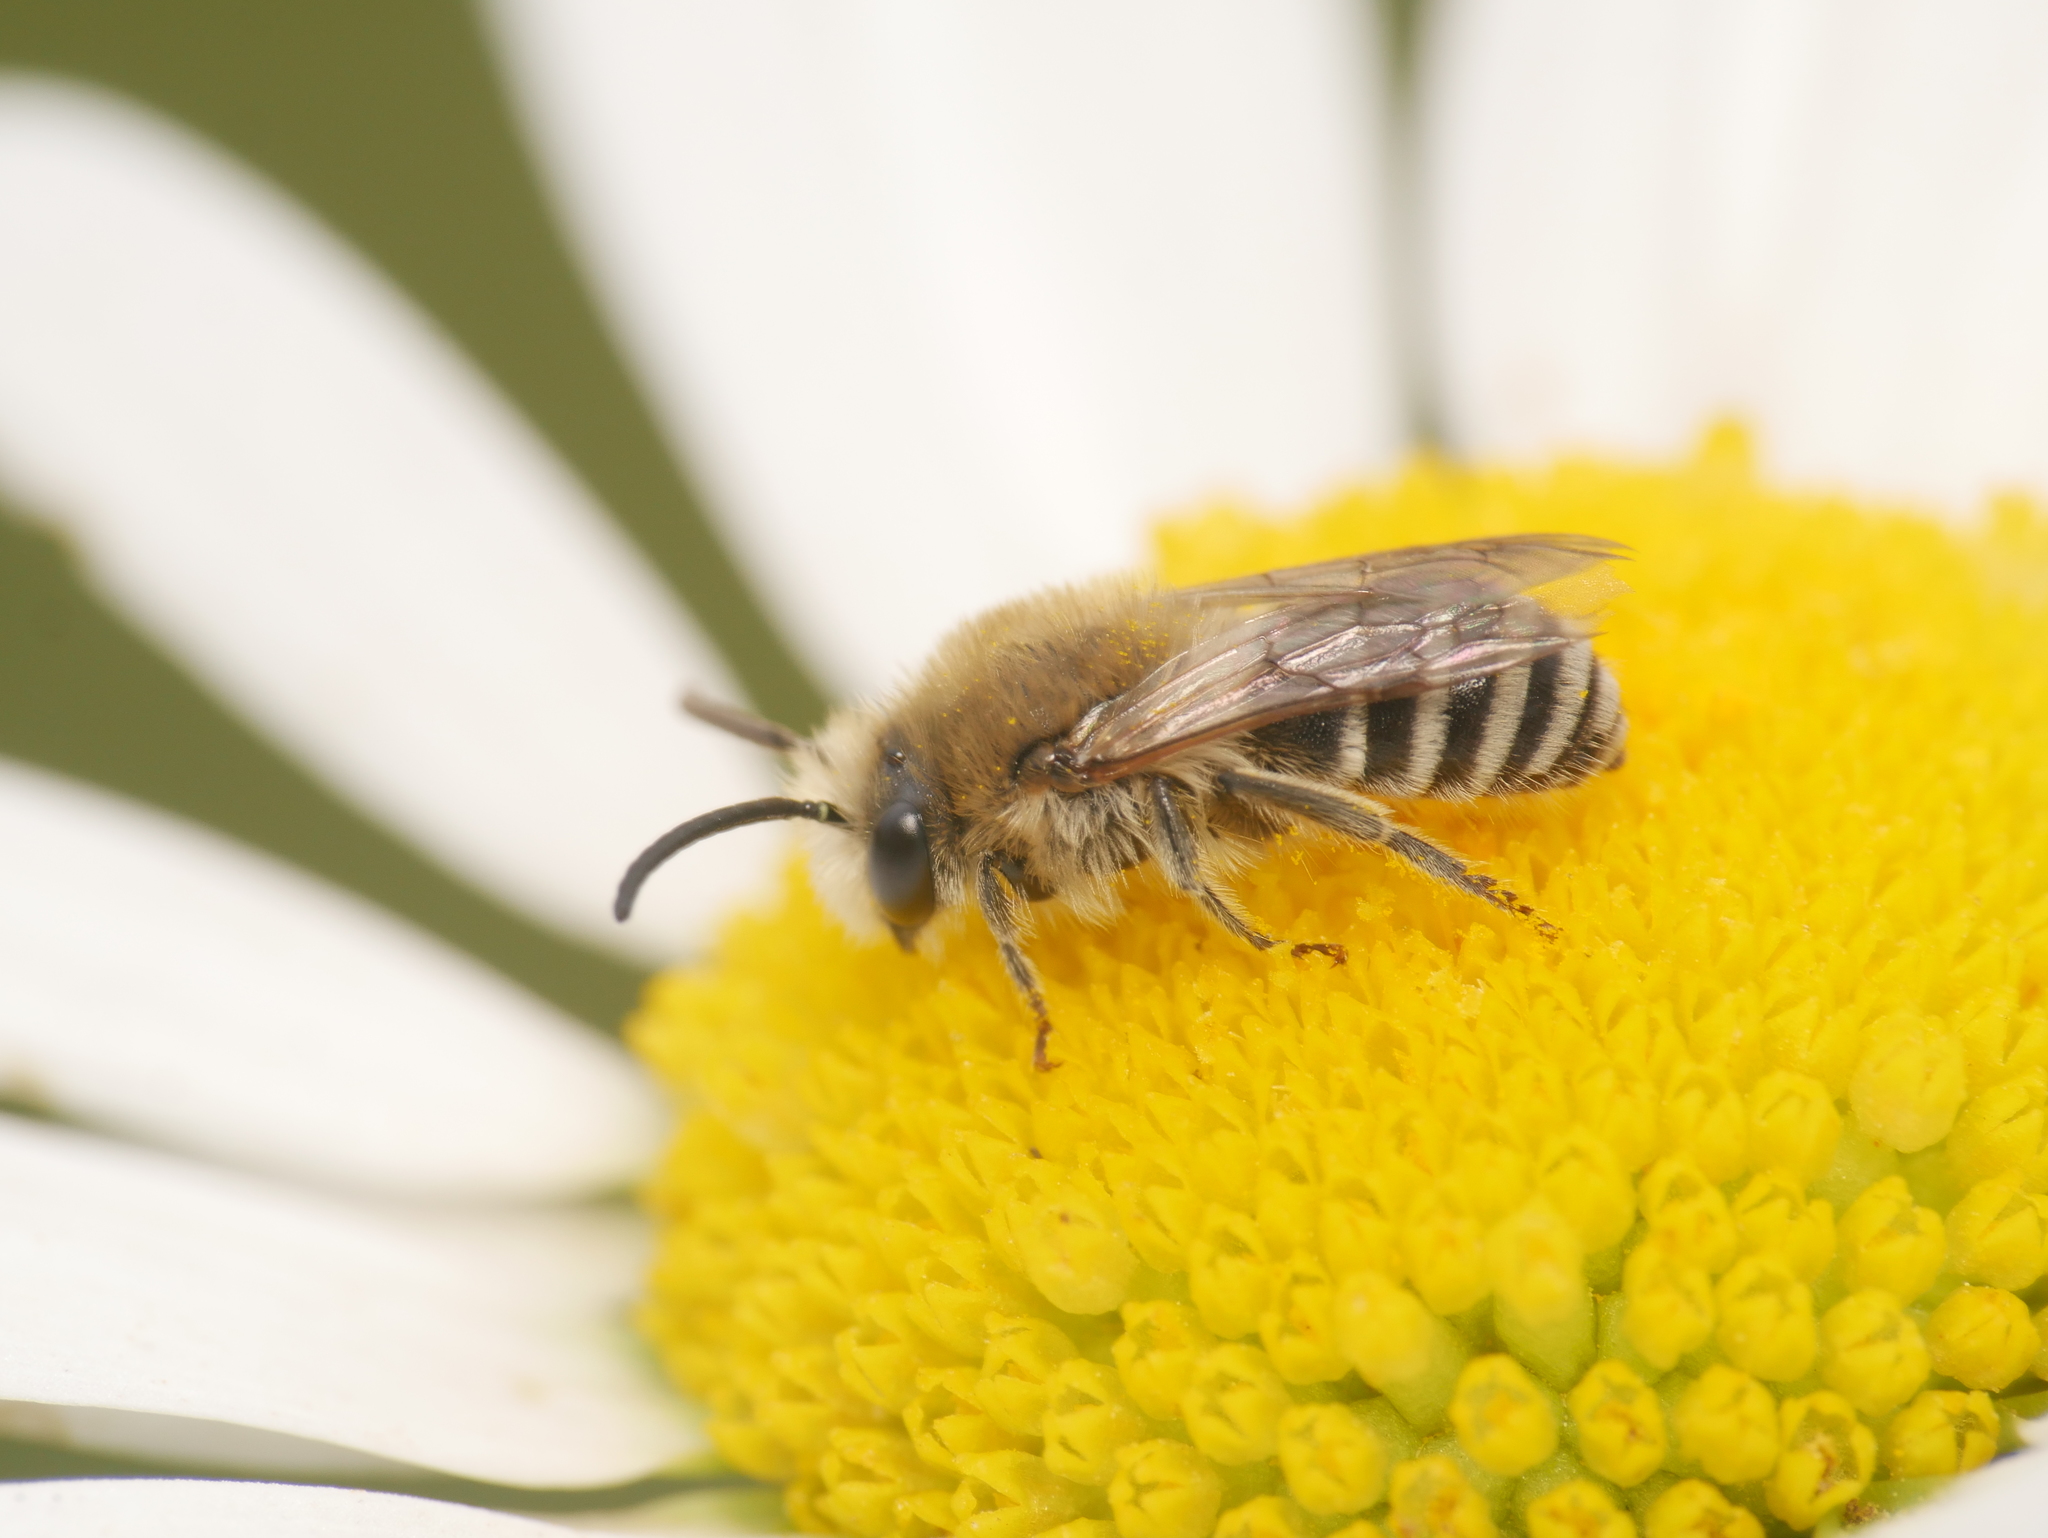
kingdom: Animalia
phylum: Arthropoda
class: Insecta
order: Hymenoptera
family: Colletidae
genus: Colletes
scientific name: Colletes
